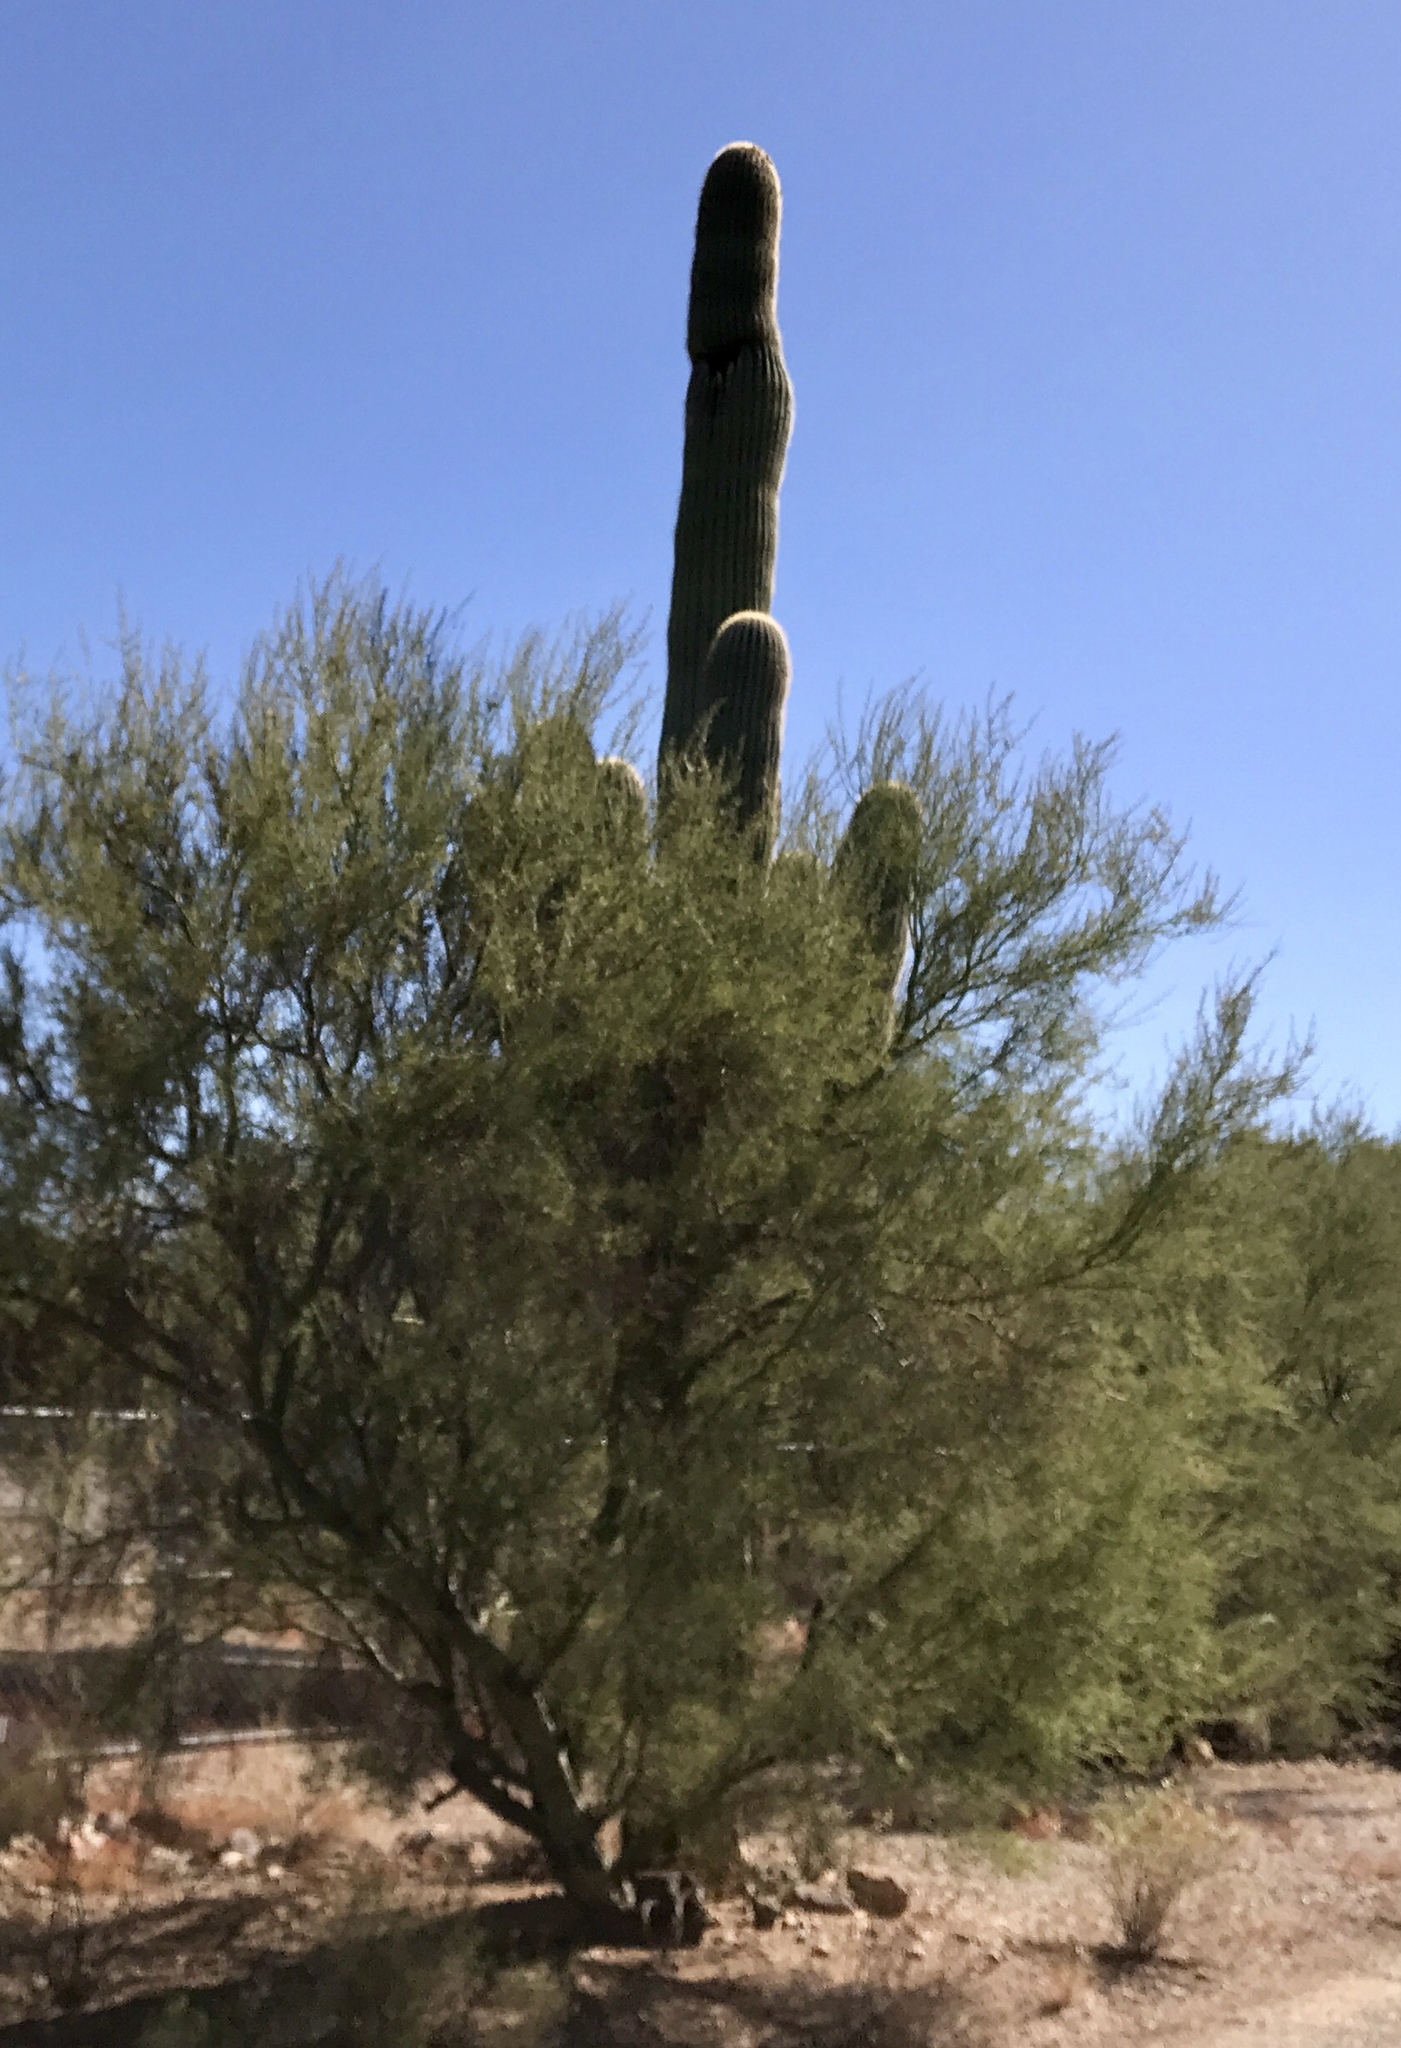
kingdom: Plantae
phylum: Tracheophyta
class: Magnoliopsida
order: Caryophyllales
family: Cactaceae
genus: Carnegiea
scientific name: Carnegiea gigantea
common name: Saguaro
